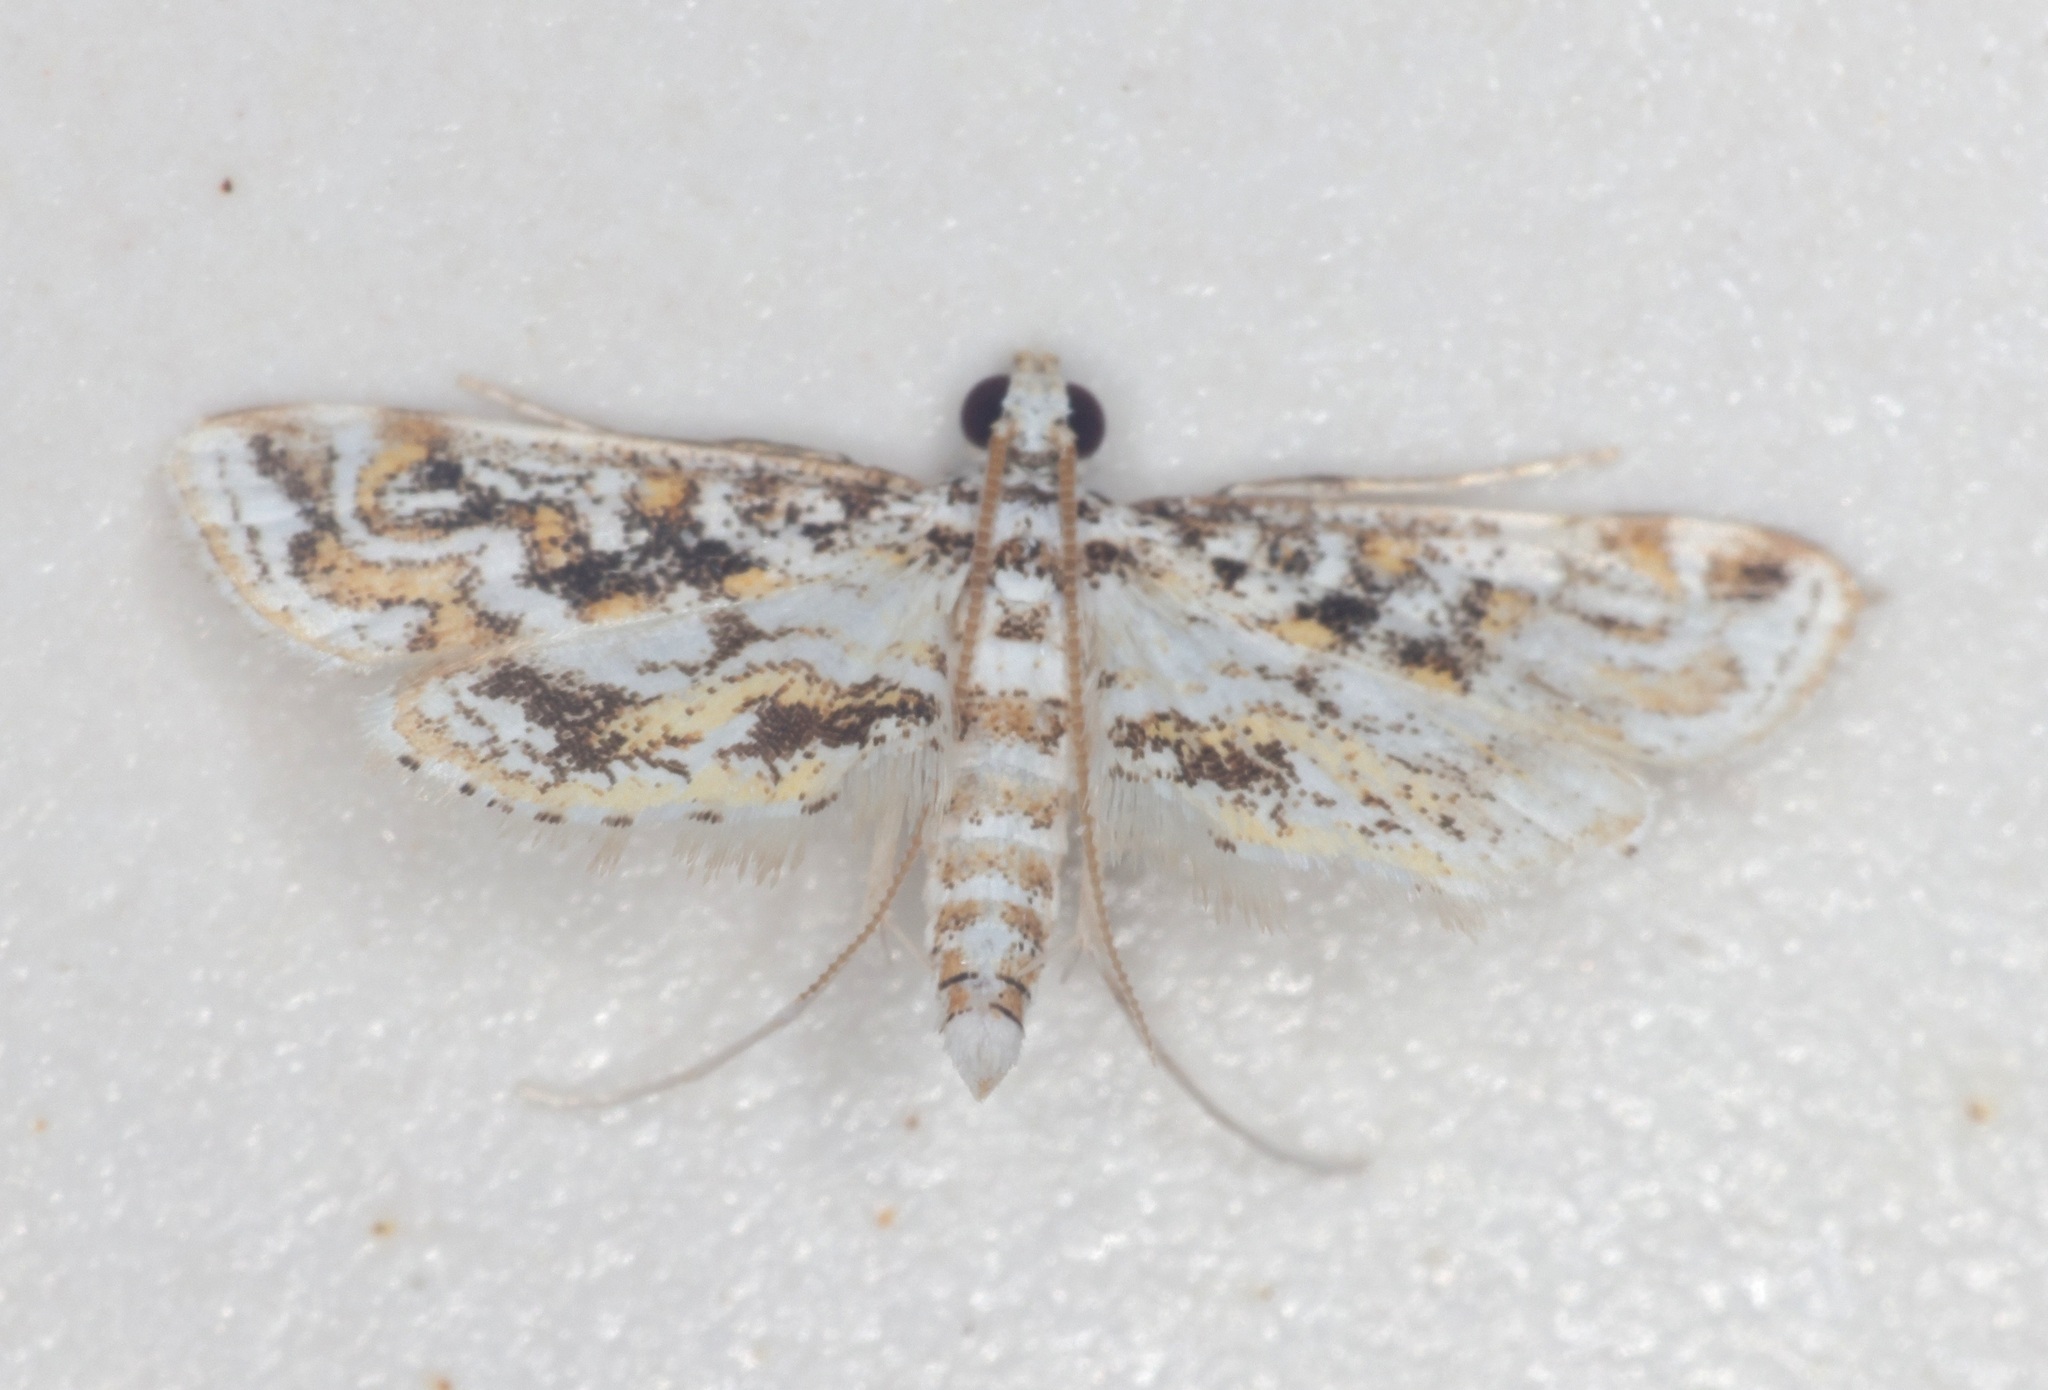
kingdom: Animalia
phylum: Arthropoda
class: Insecta
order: Lepidoptera
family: Crambidae
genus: Parapoynx
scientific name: Parapoynx diminutalis
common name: Hydrilla leafcutter
